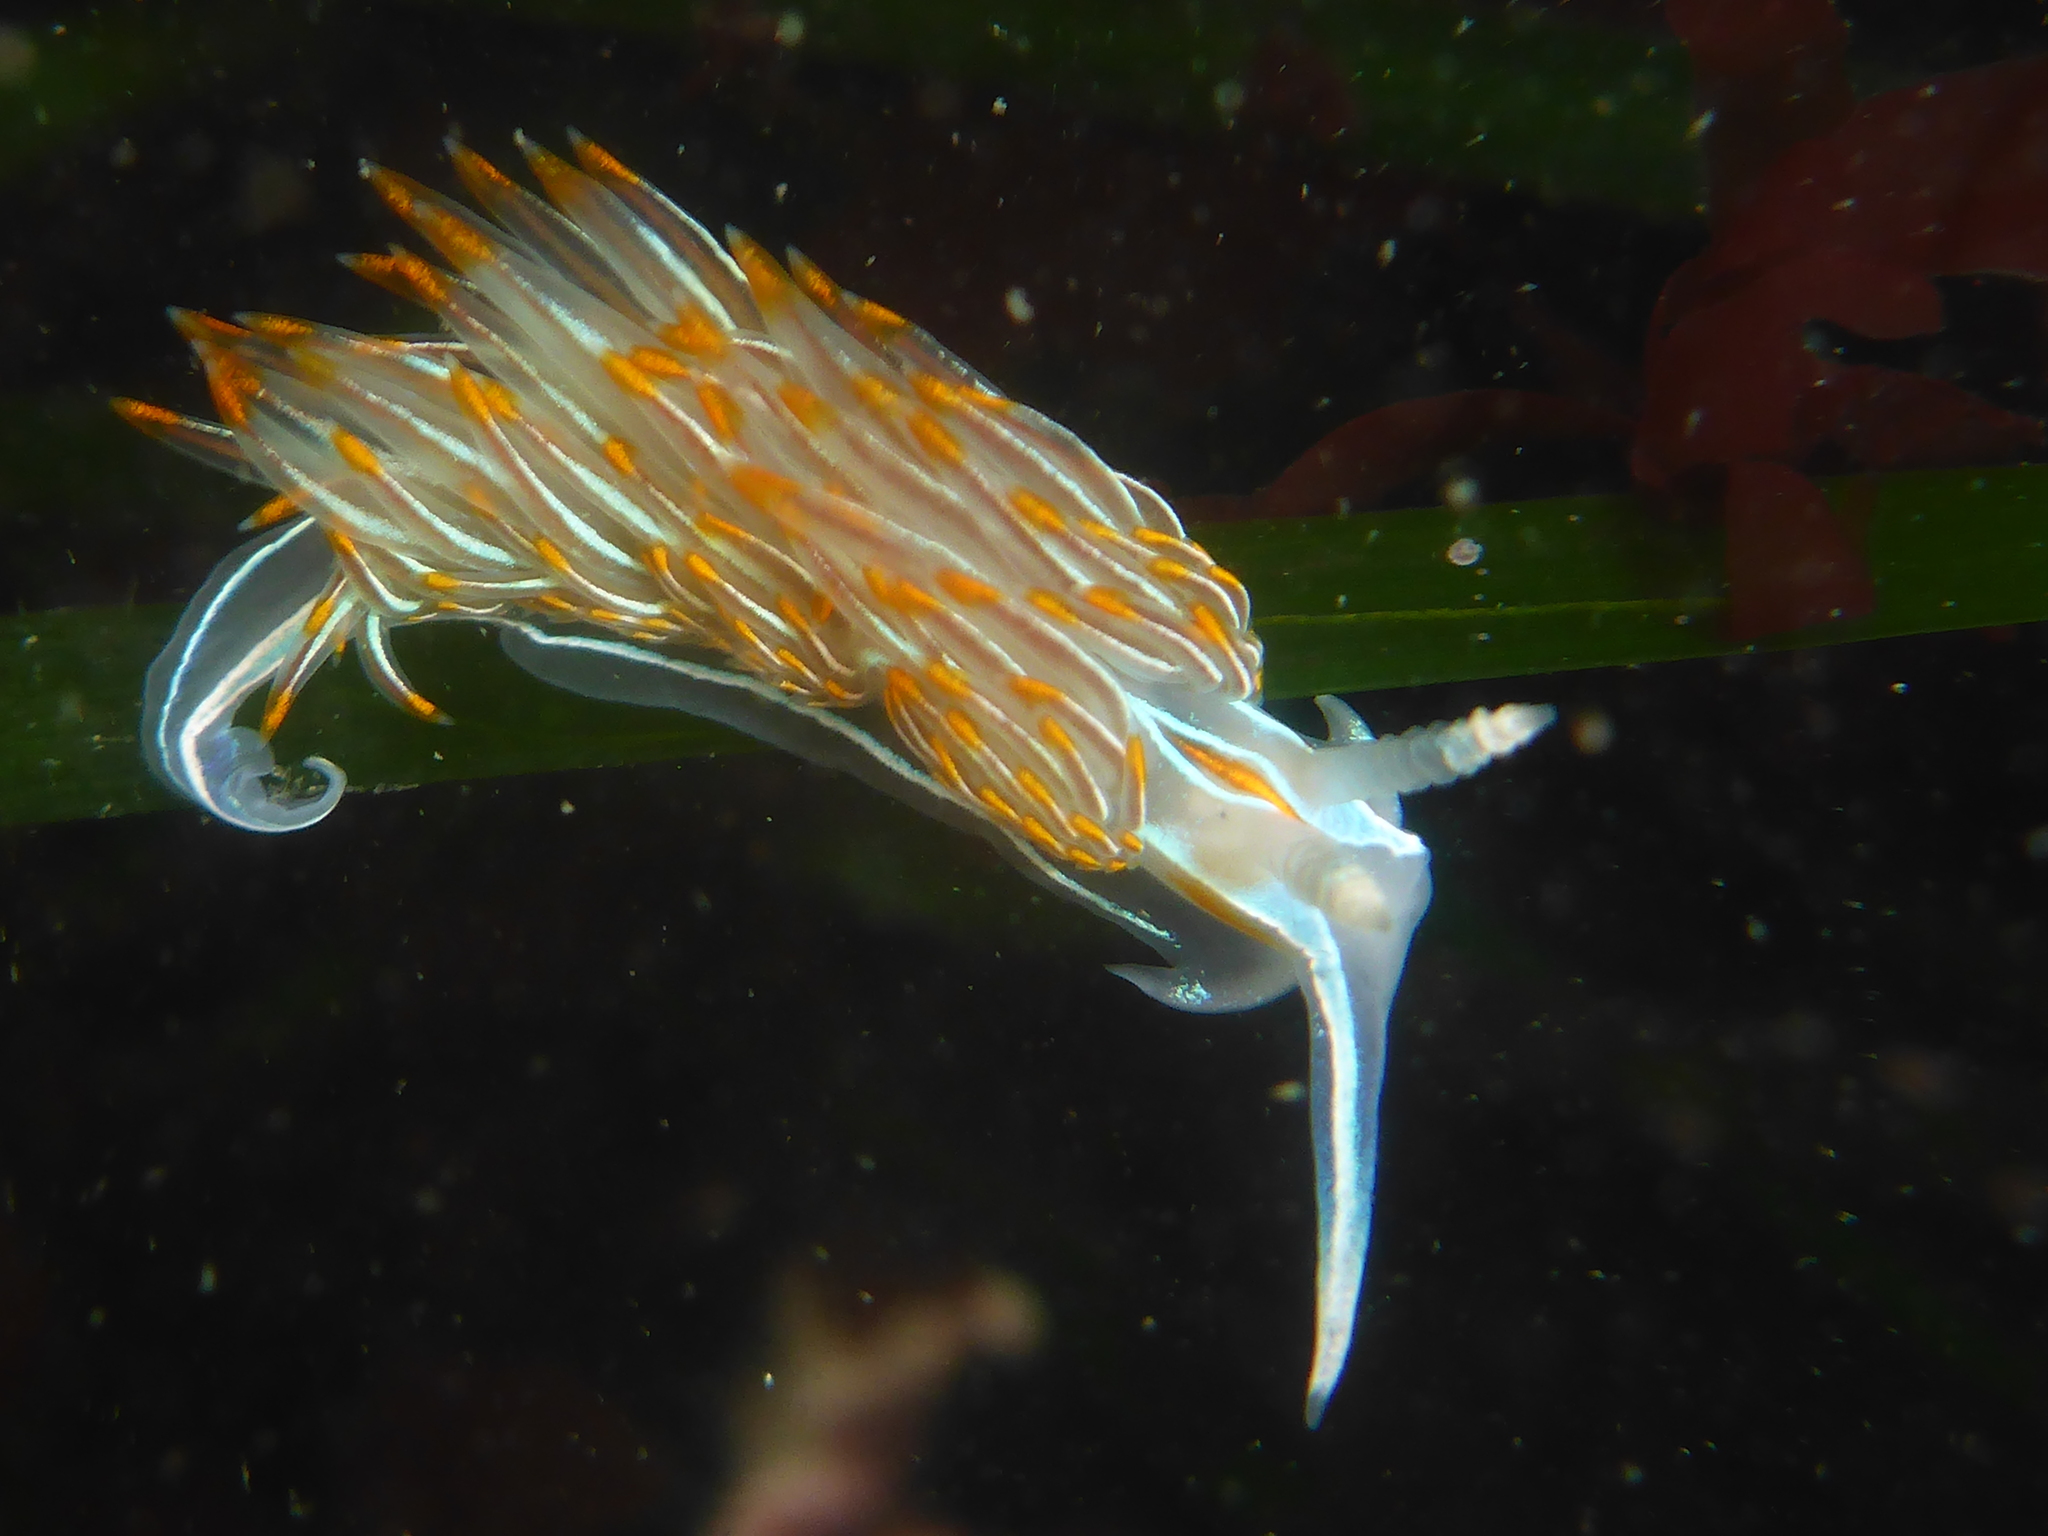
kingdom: Animalia
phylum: Mollusca
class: Gastropoda
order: Nudibranchia
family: Myrrhinidae
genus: Hermissenda
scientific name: Hermissenda crassicornis
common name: Hermissenda
